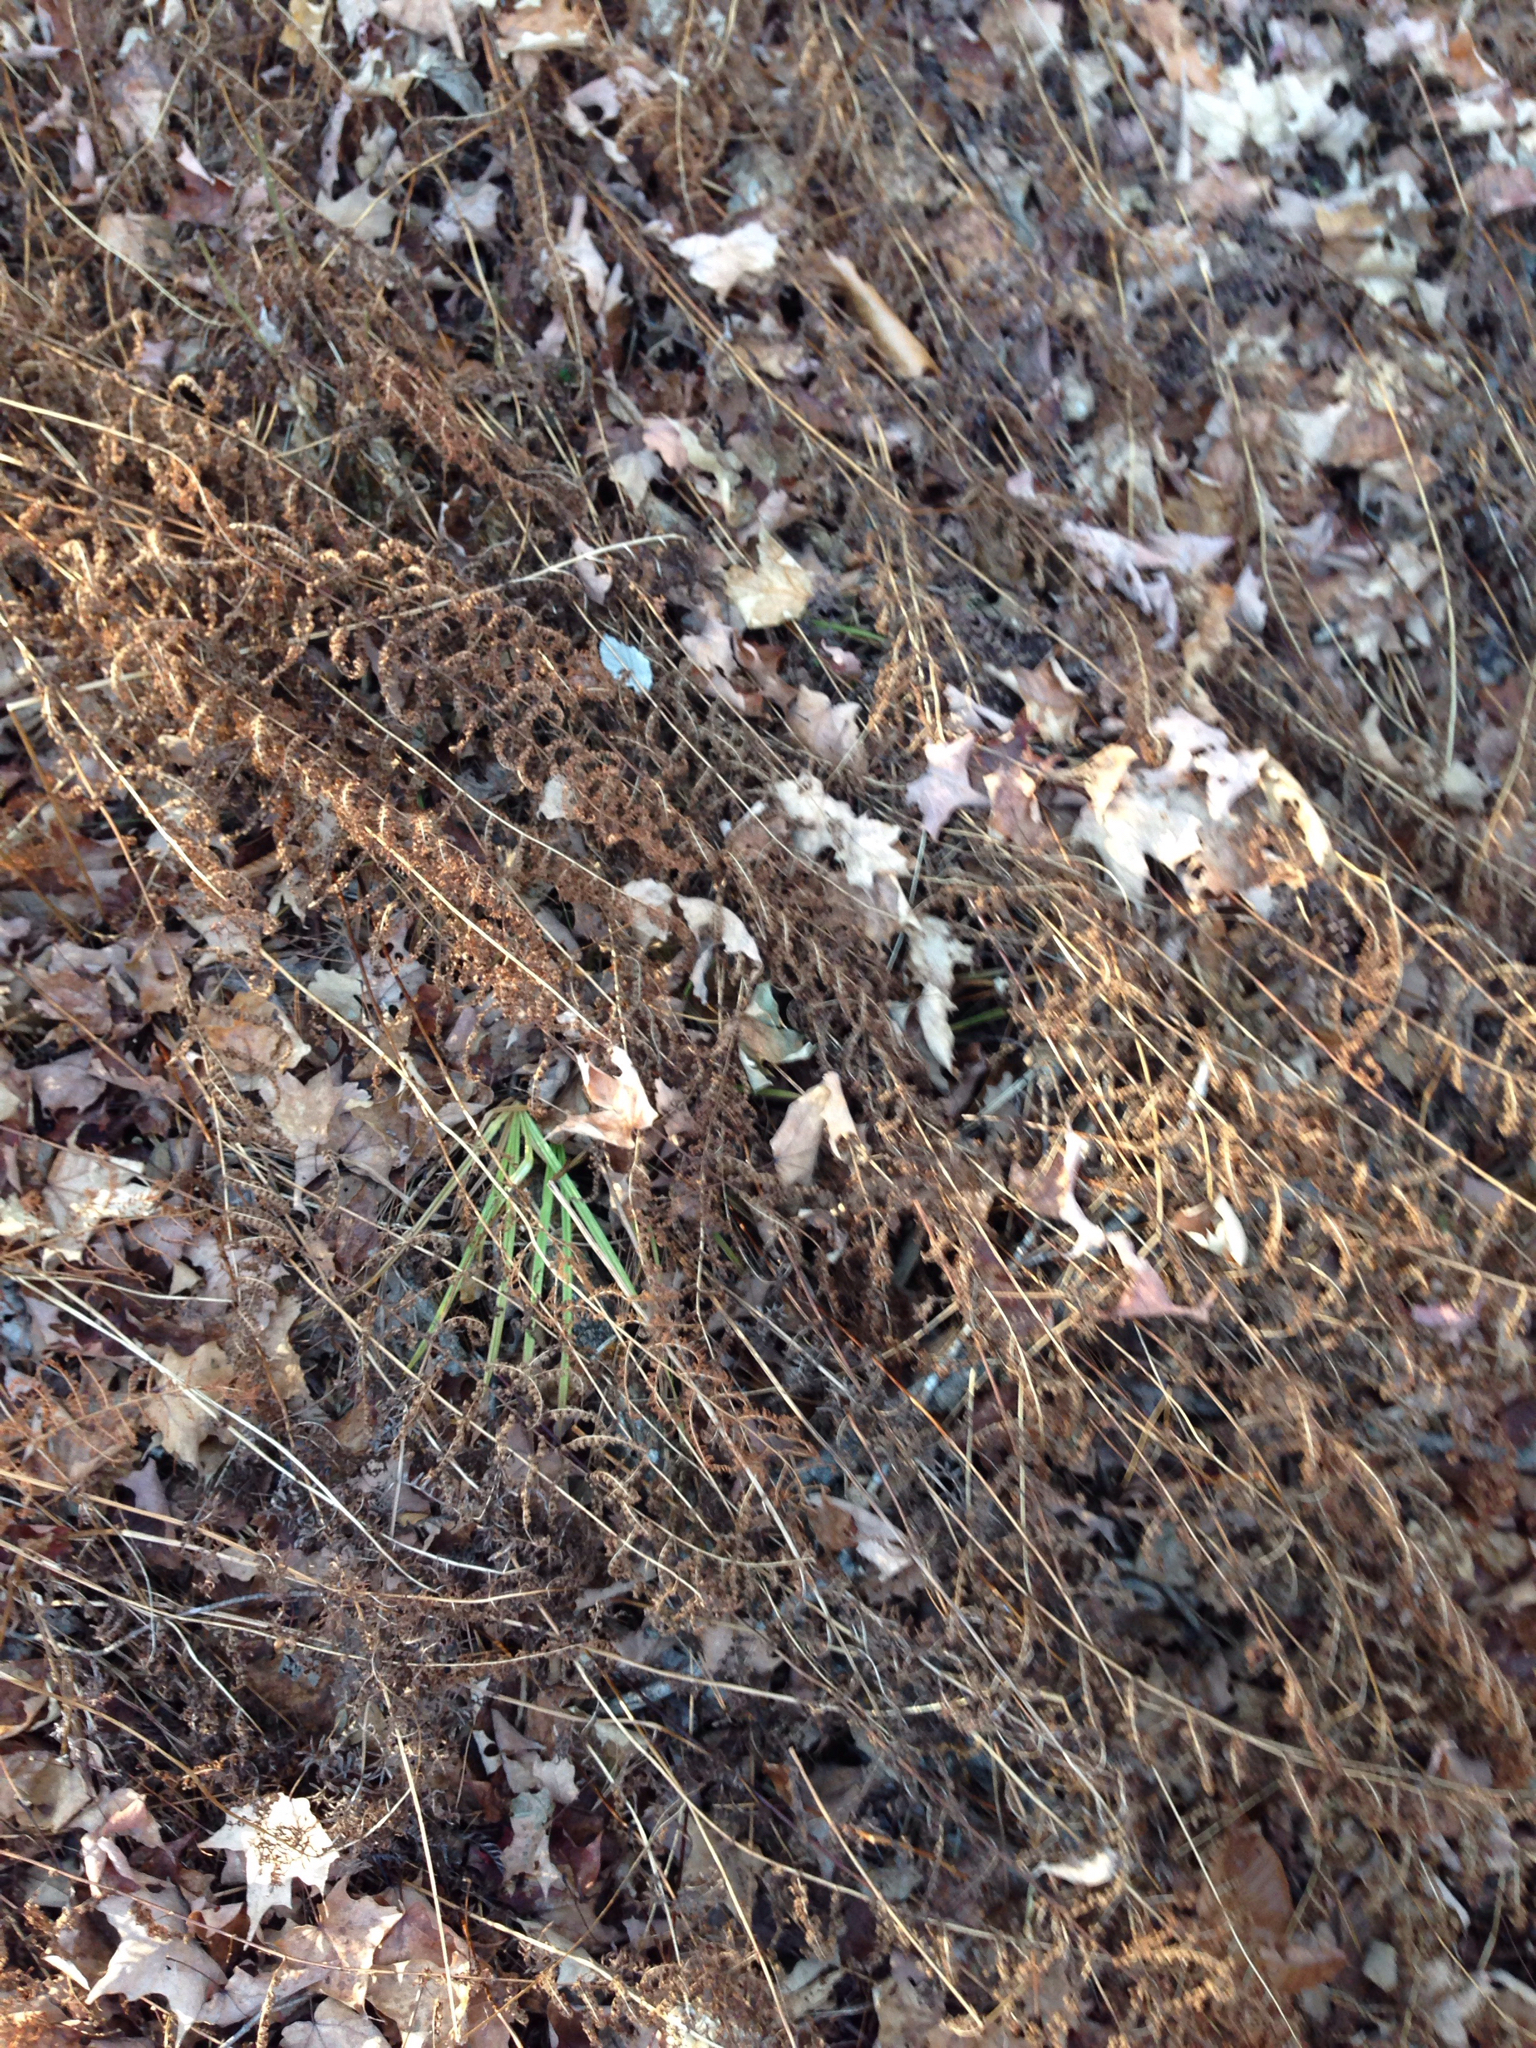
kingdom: Plantae
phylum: Tracheophyta
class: Polypodiopsida
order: Polypodiales
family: Dennstaedtiaceae
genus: Sitobolium
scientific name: Sitobolium punctilobum
